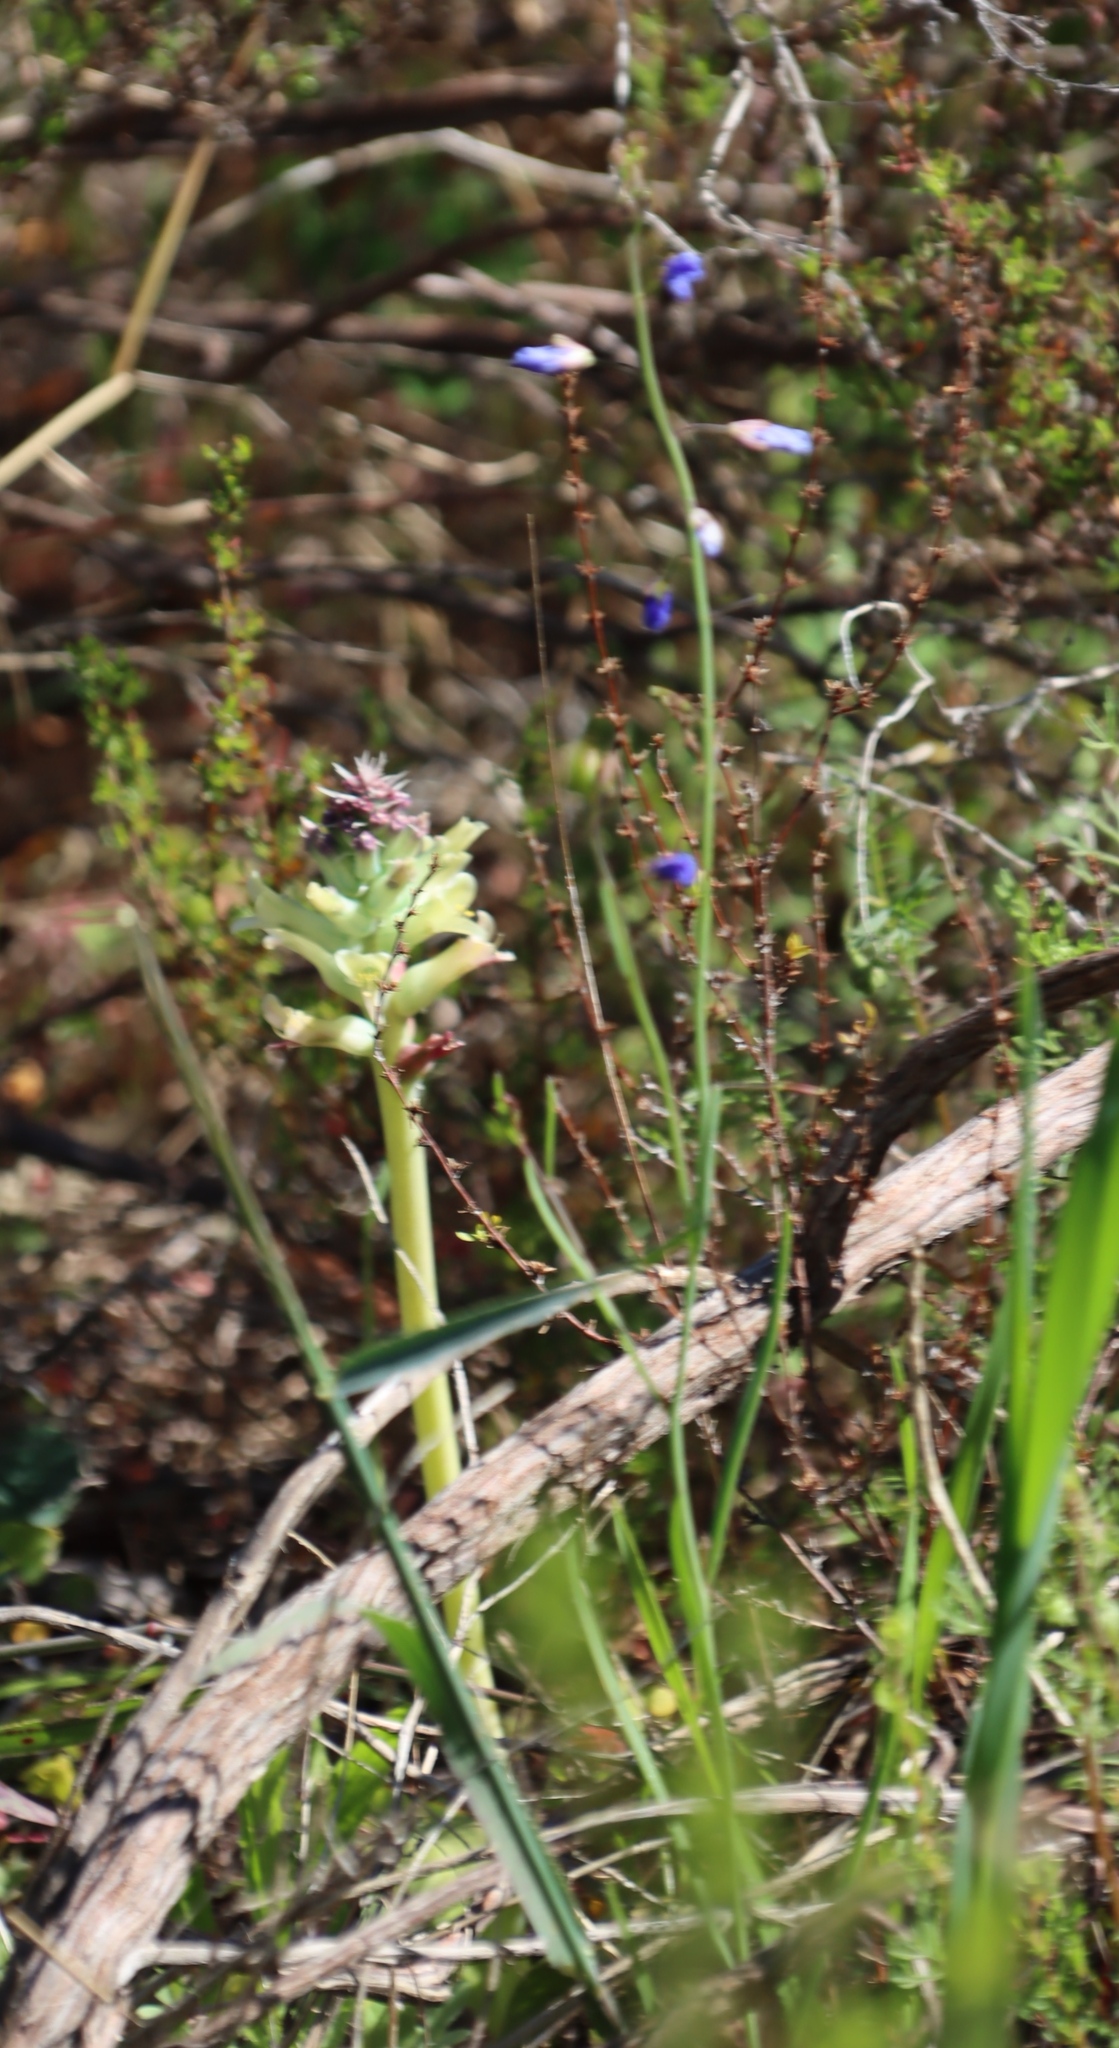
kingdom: Plantae
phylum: Tracheophyta
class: Liliopsida
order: Asparagales
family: Asparagaceae
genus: Lachenalia
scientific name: Lachenalia orchioides
